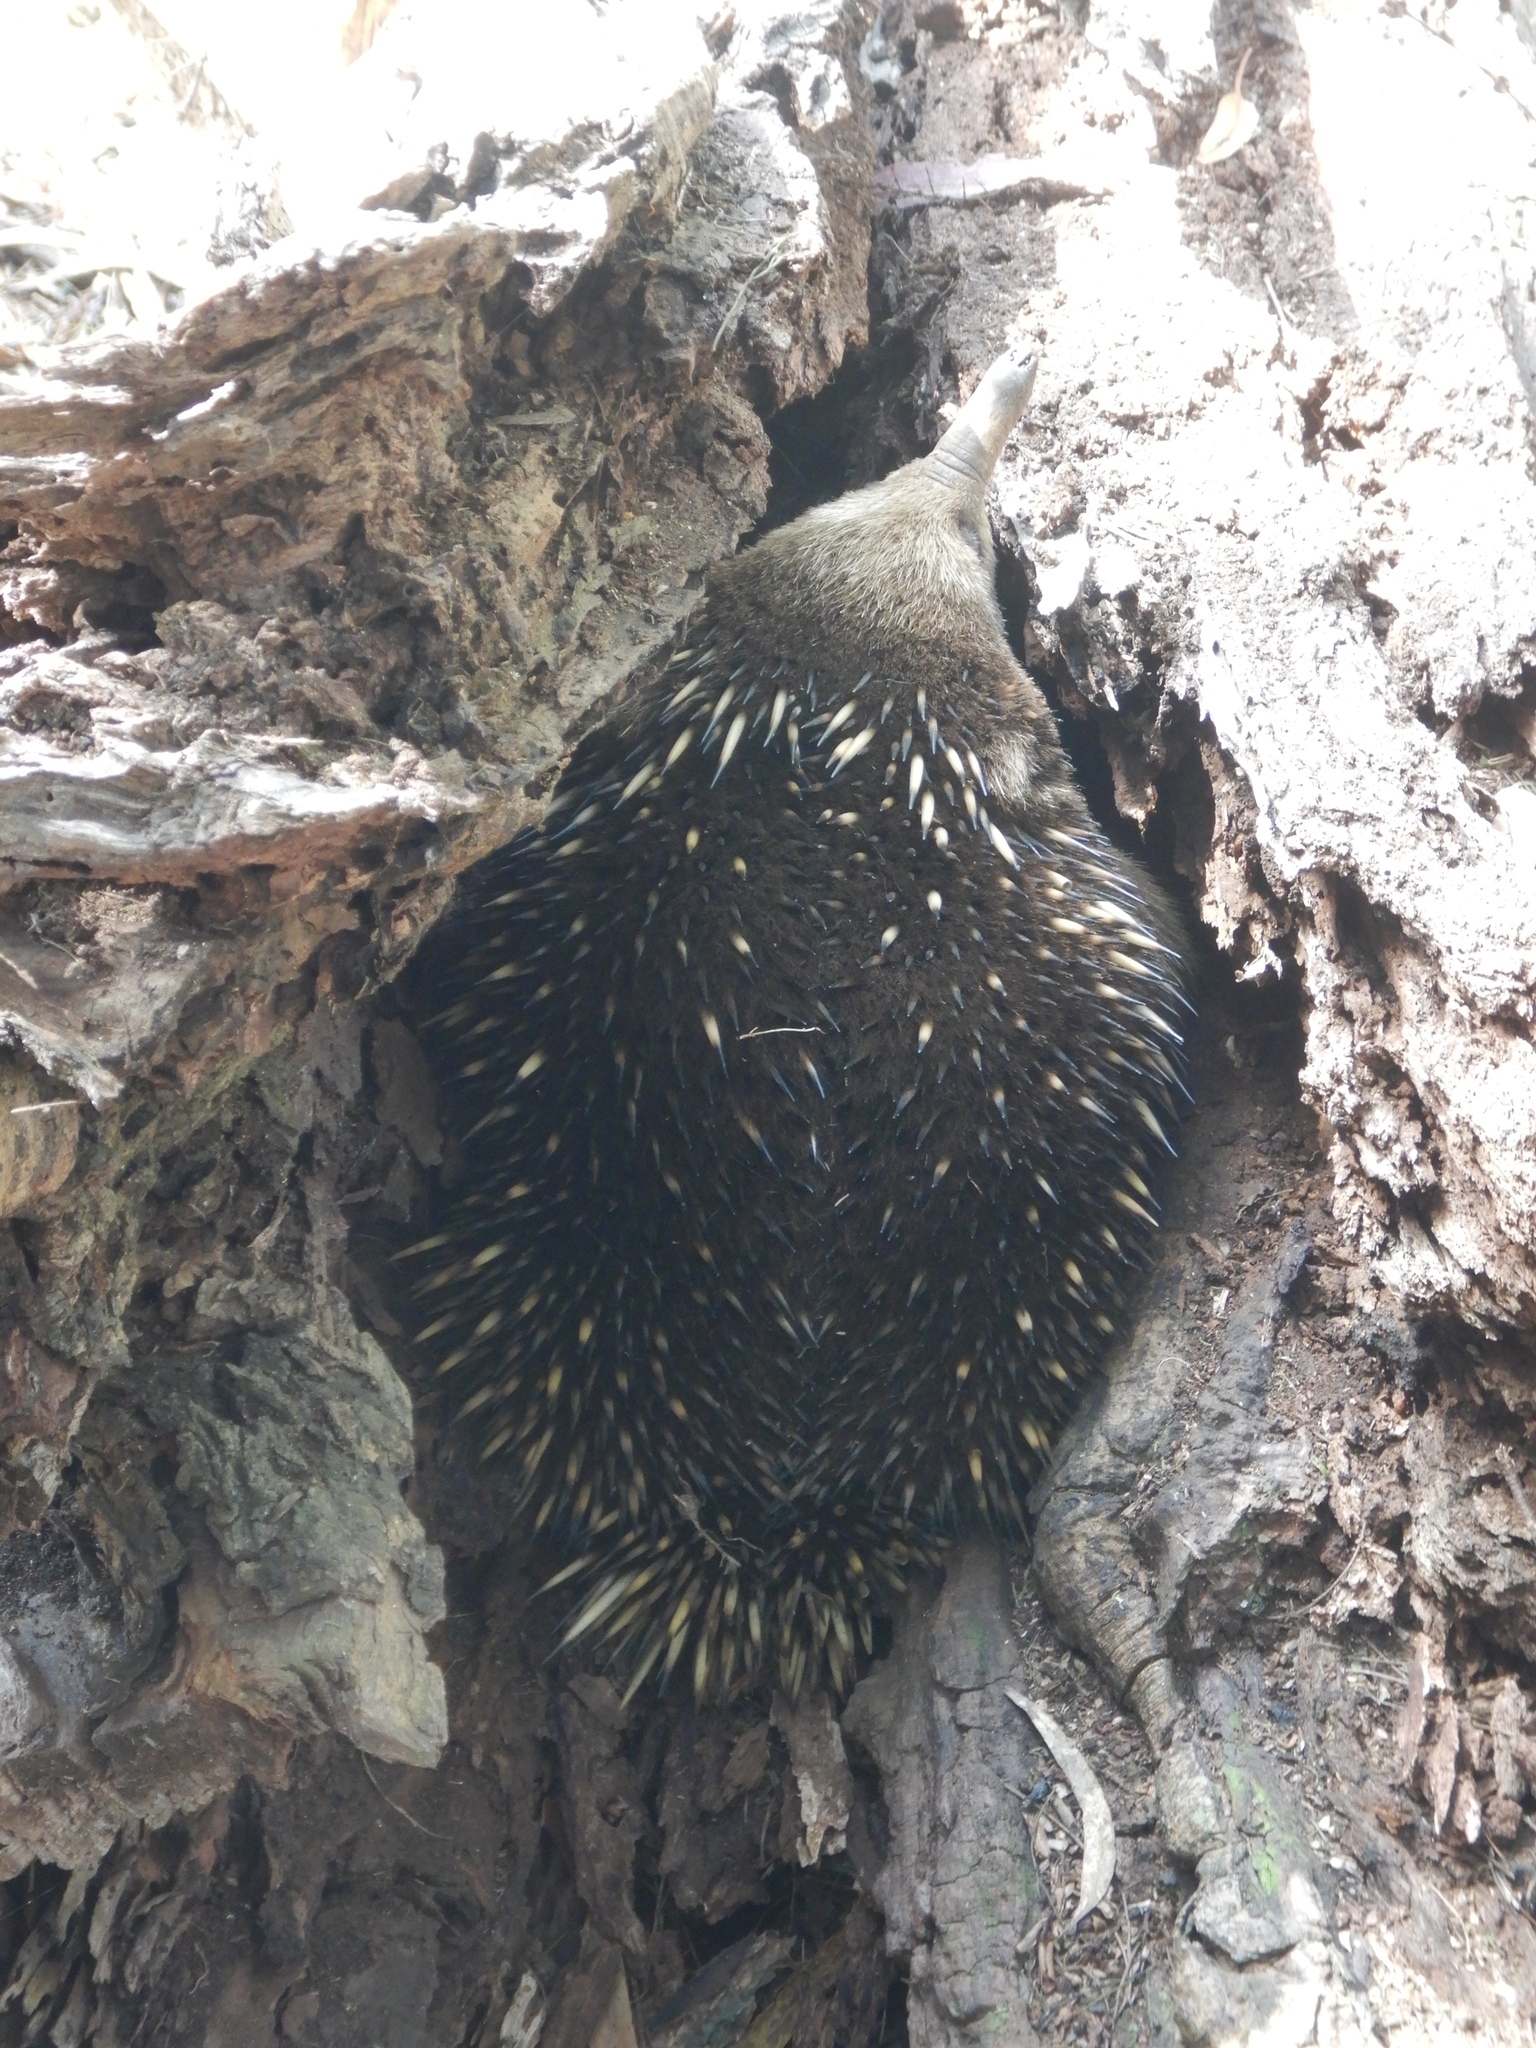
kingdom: Animalia
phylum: Chordata
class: Mammalia
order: Monotremata
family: Tachyglossidae
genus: Tachyglossus
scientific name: Tachyglossus aculeatus
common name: Short-beaked echidna
